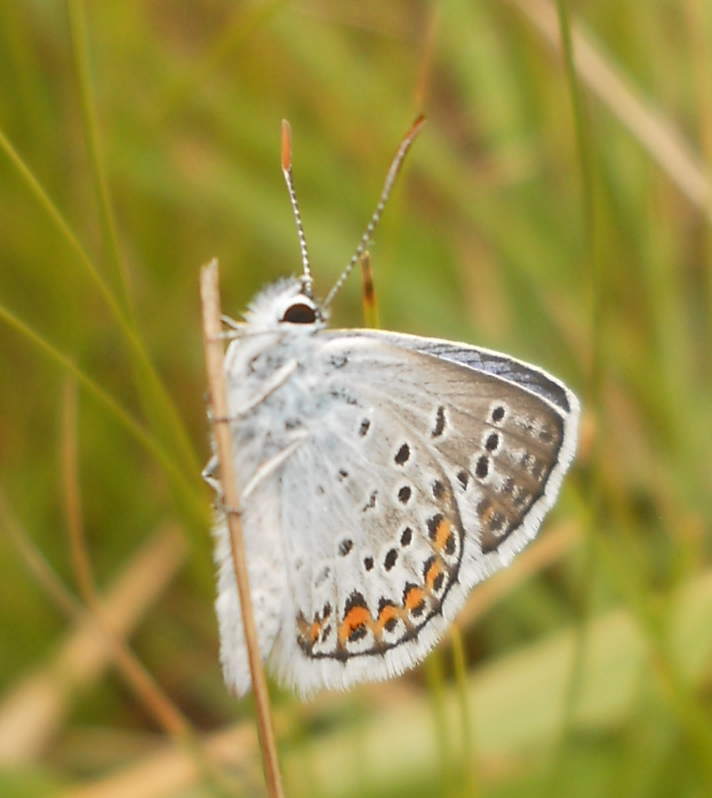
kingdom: Animalia
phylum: Arthropoda
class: Insecta
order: Lepidoptera
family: Lycaenidae
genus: Plebejus
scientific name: Plebejus argus
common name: Silver-studded blue
